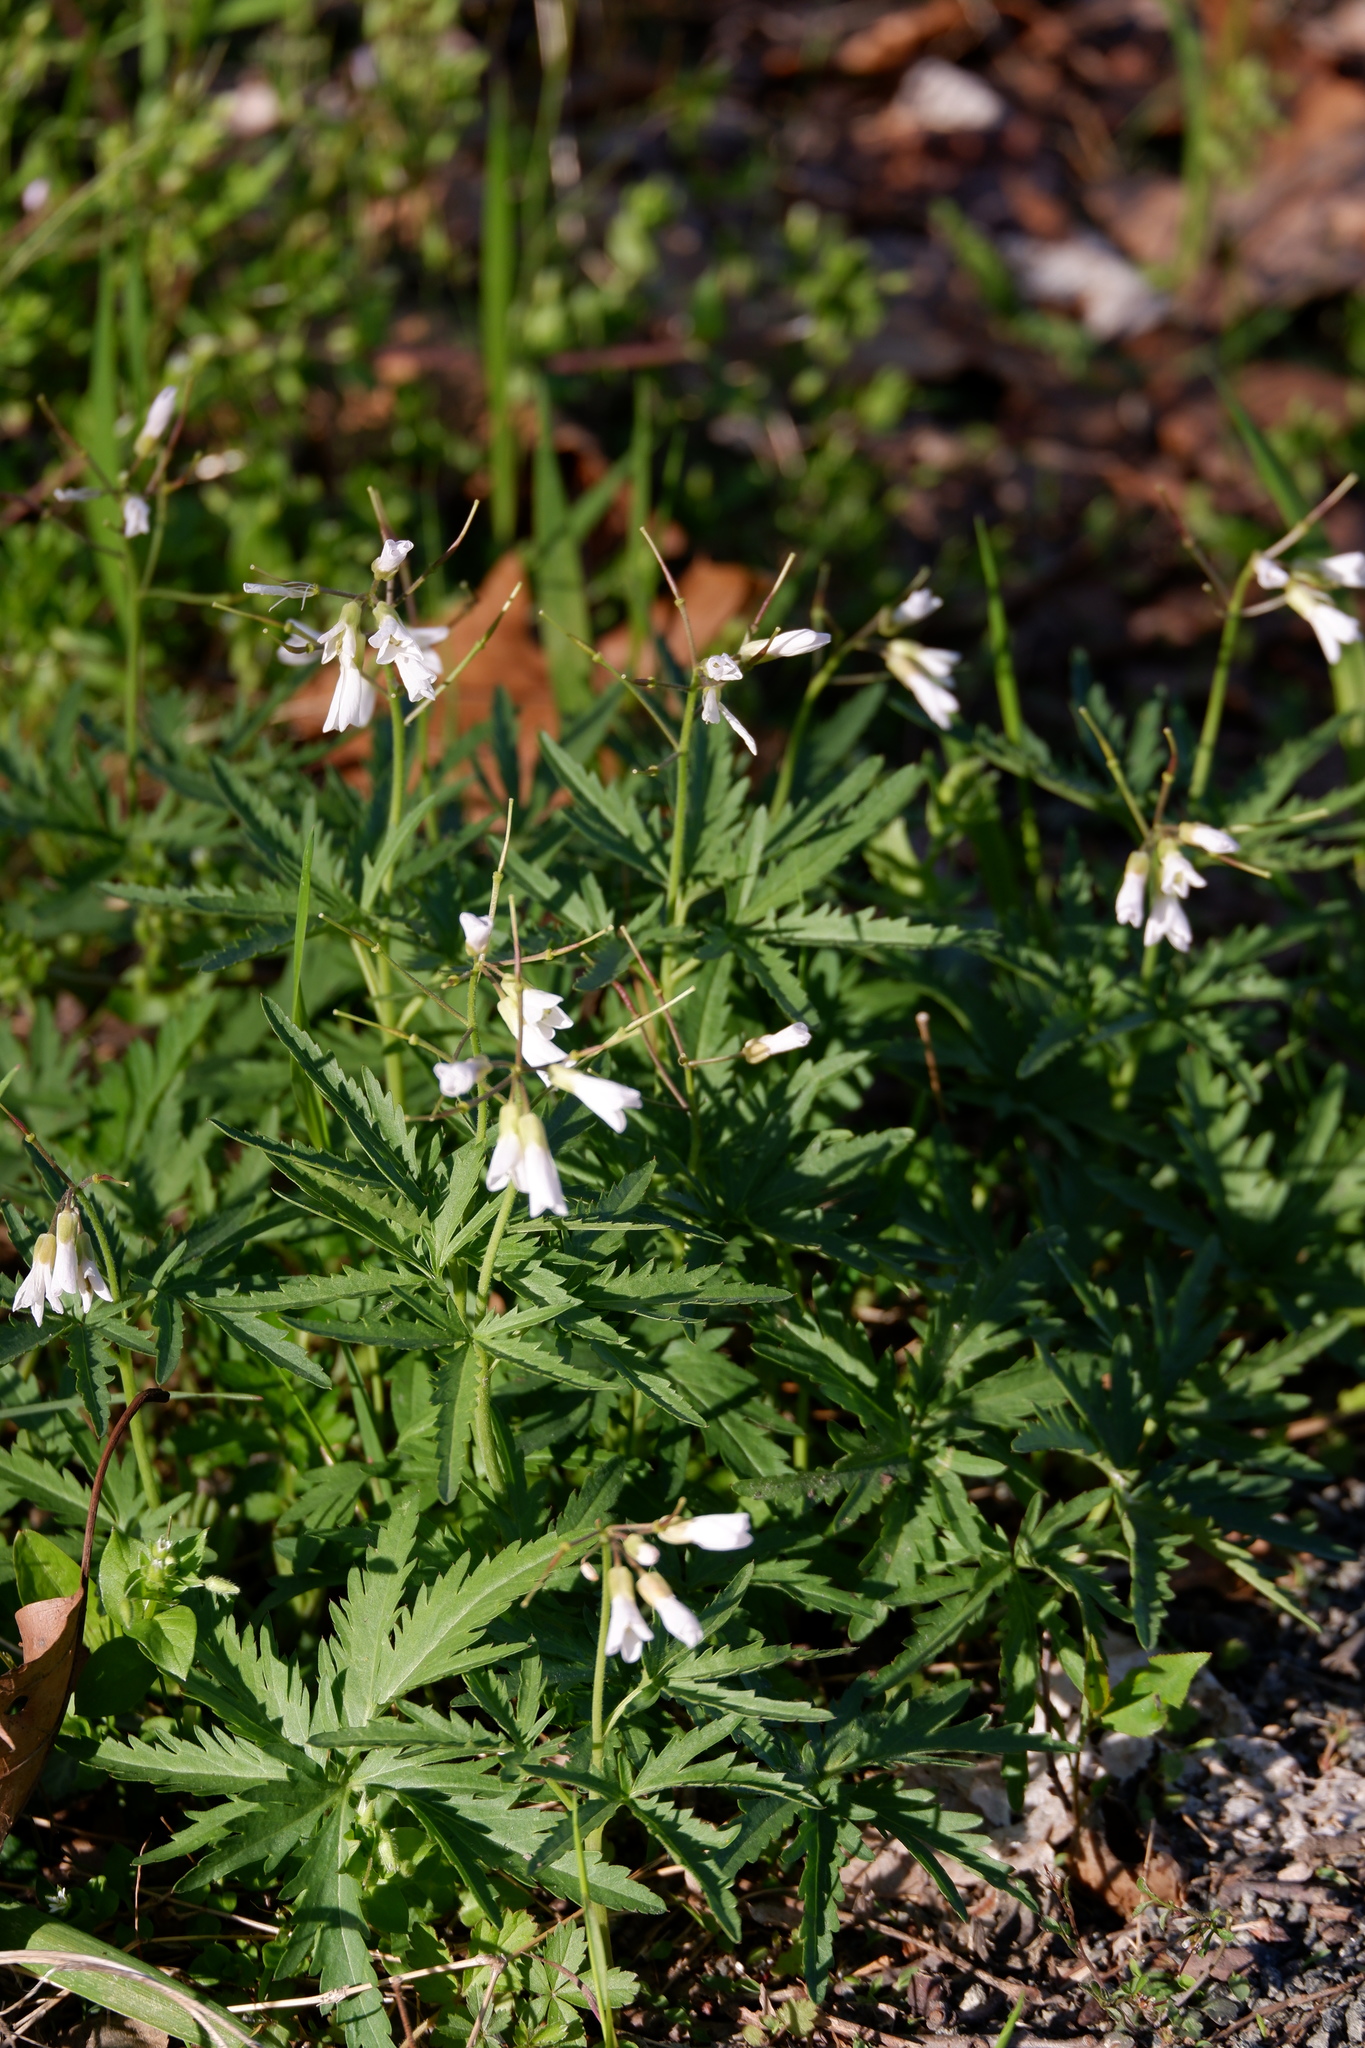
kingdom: Plantae
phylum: Tracheophyta
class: Magnoliopsida
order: Brassicales
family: Brassicaceae
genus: Cardamine
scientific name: Cardamine concatenata
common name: Cut-leaf toothcup
